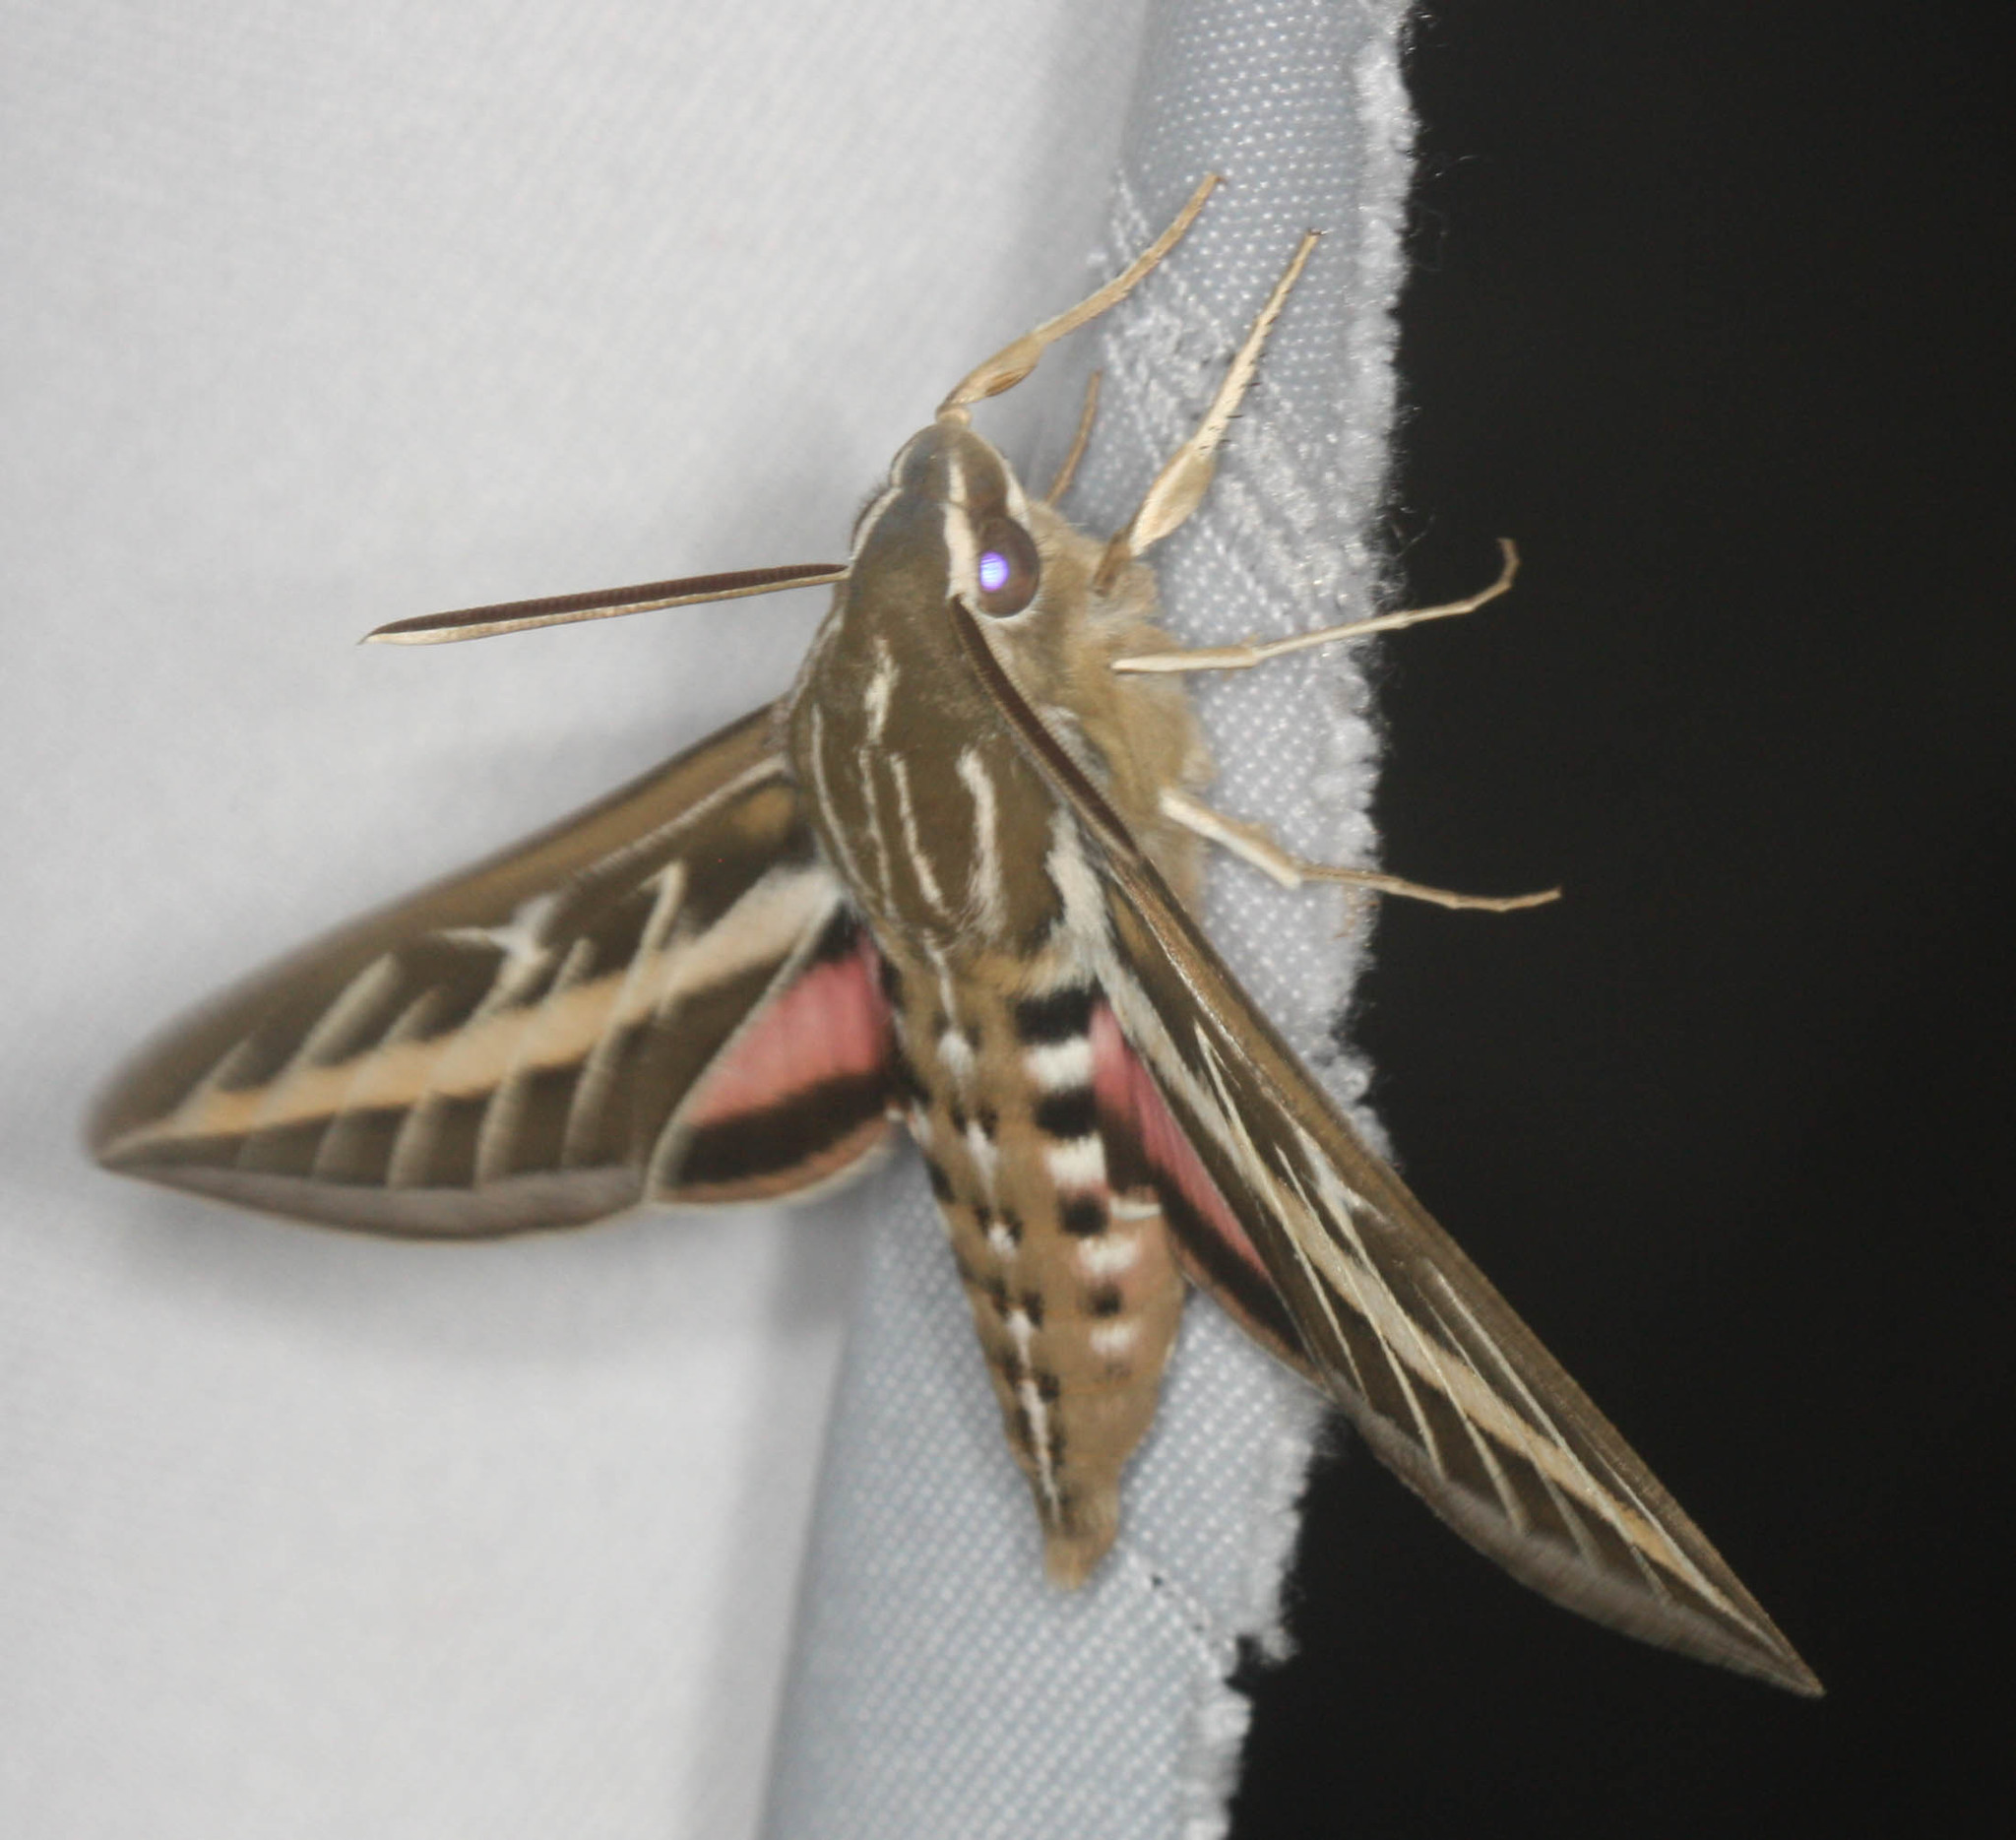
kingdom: Animalia
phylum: Arthropoda
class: Insecta
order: Lepidoptera
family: Sphingidae
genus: Hyles
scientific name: Hyles lineata
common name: White-lined sphinx
